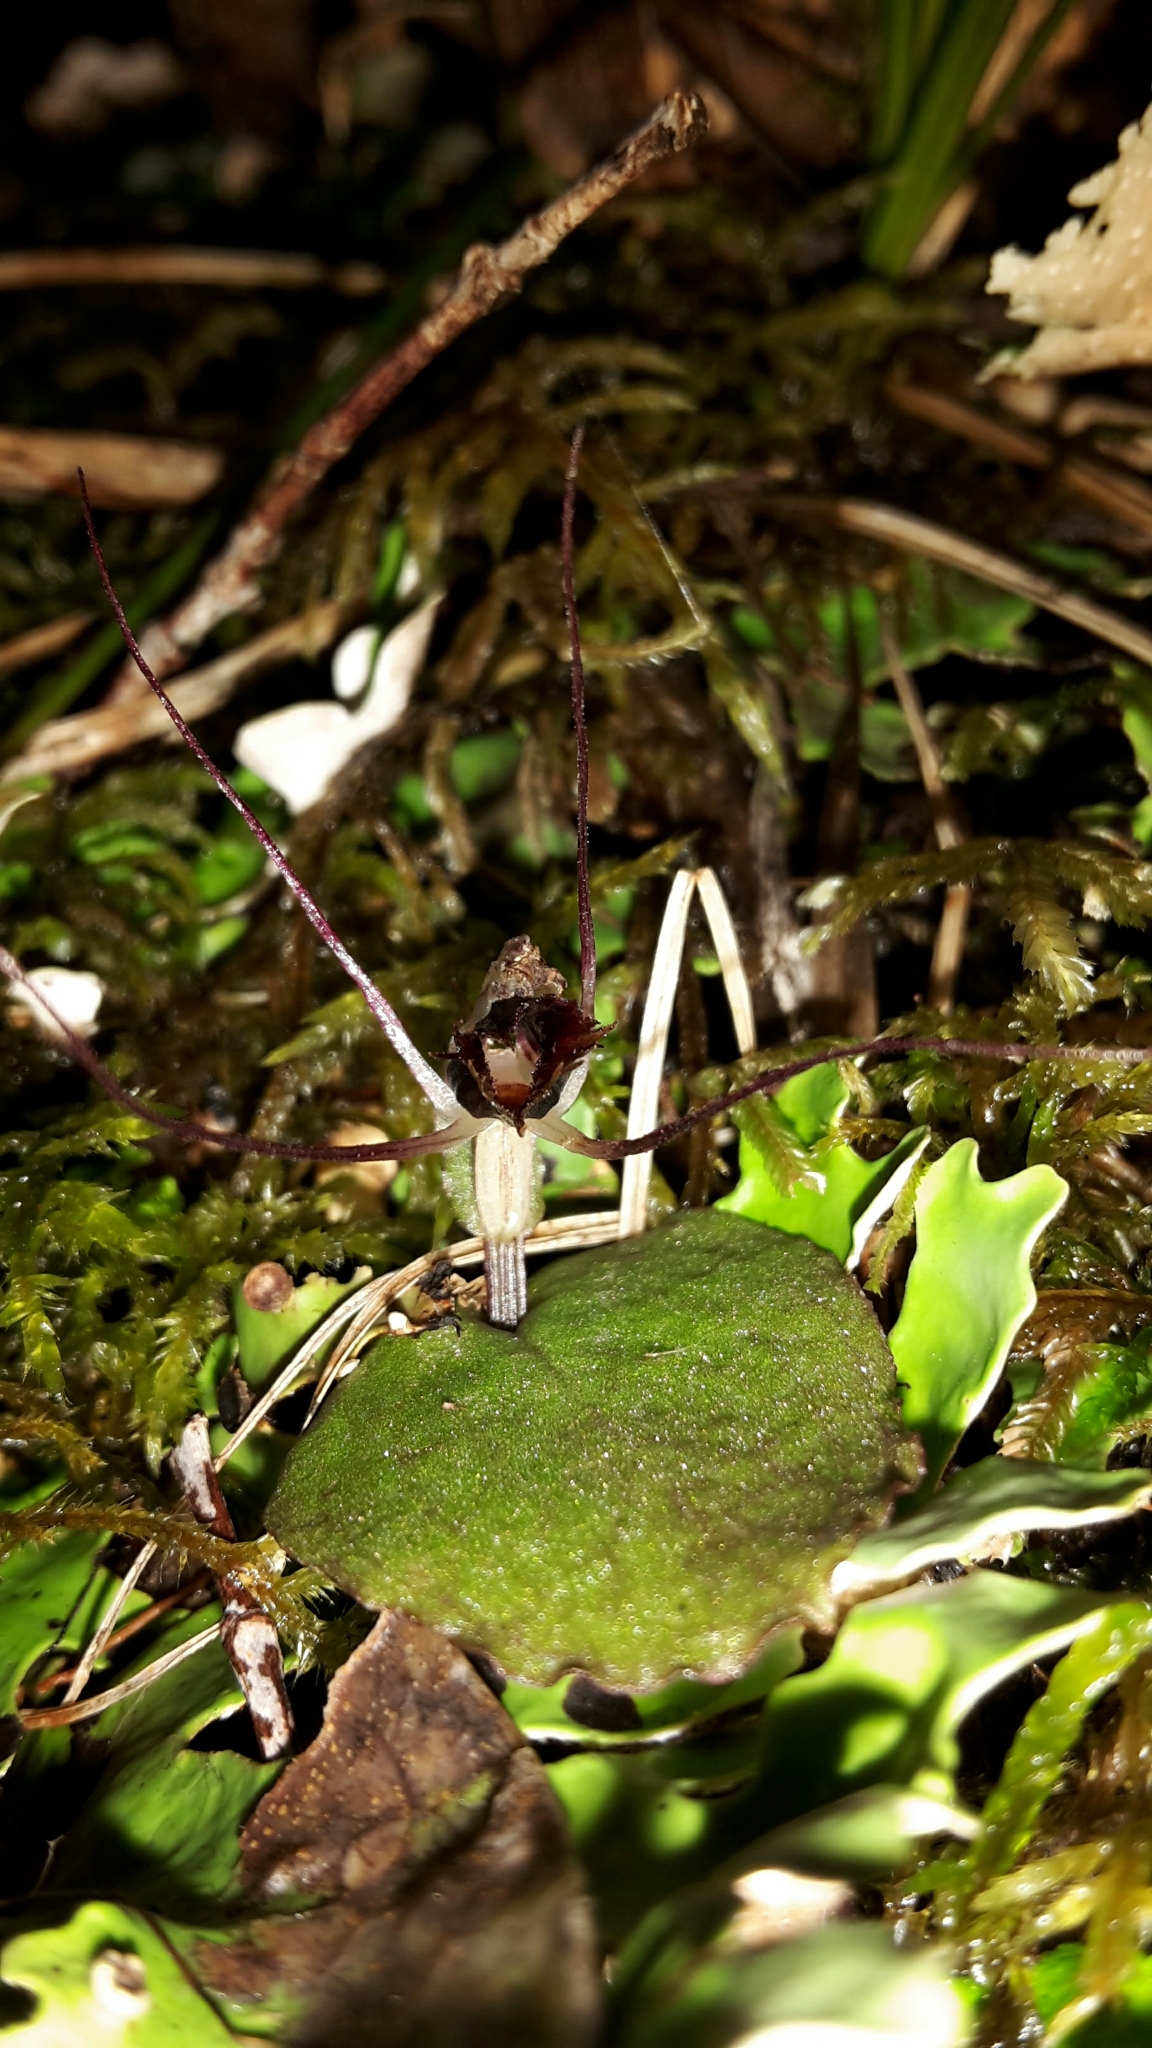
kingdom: Plantae
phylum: Tracheophyta
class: Liliopsida
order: Asparagales
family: Orchidaceae
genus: Corybas
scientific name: Corybas oblongus
